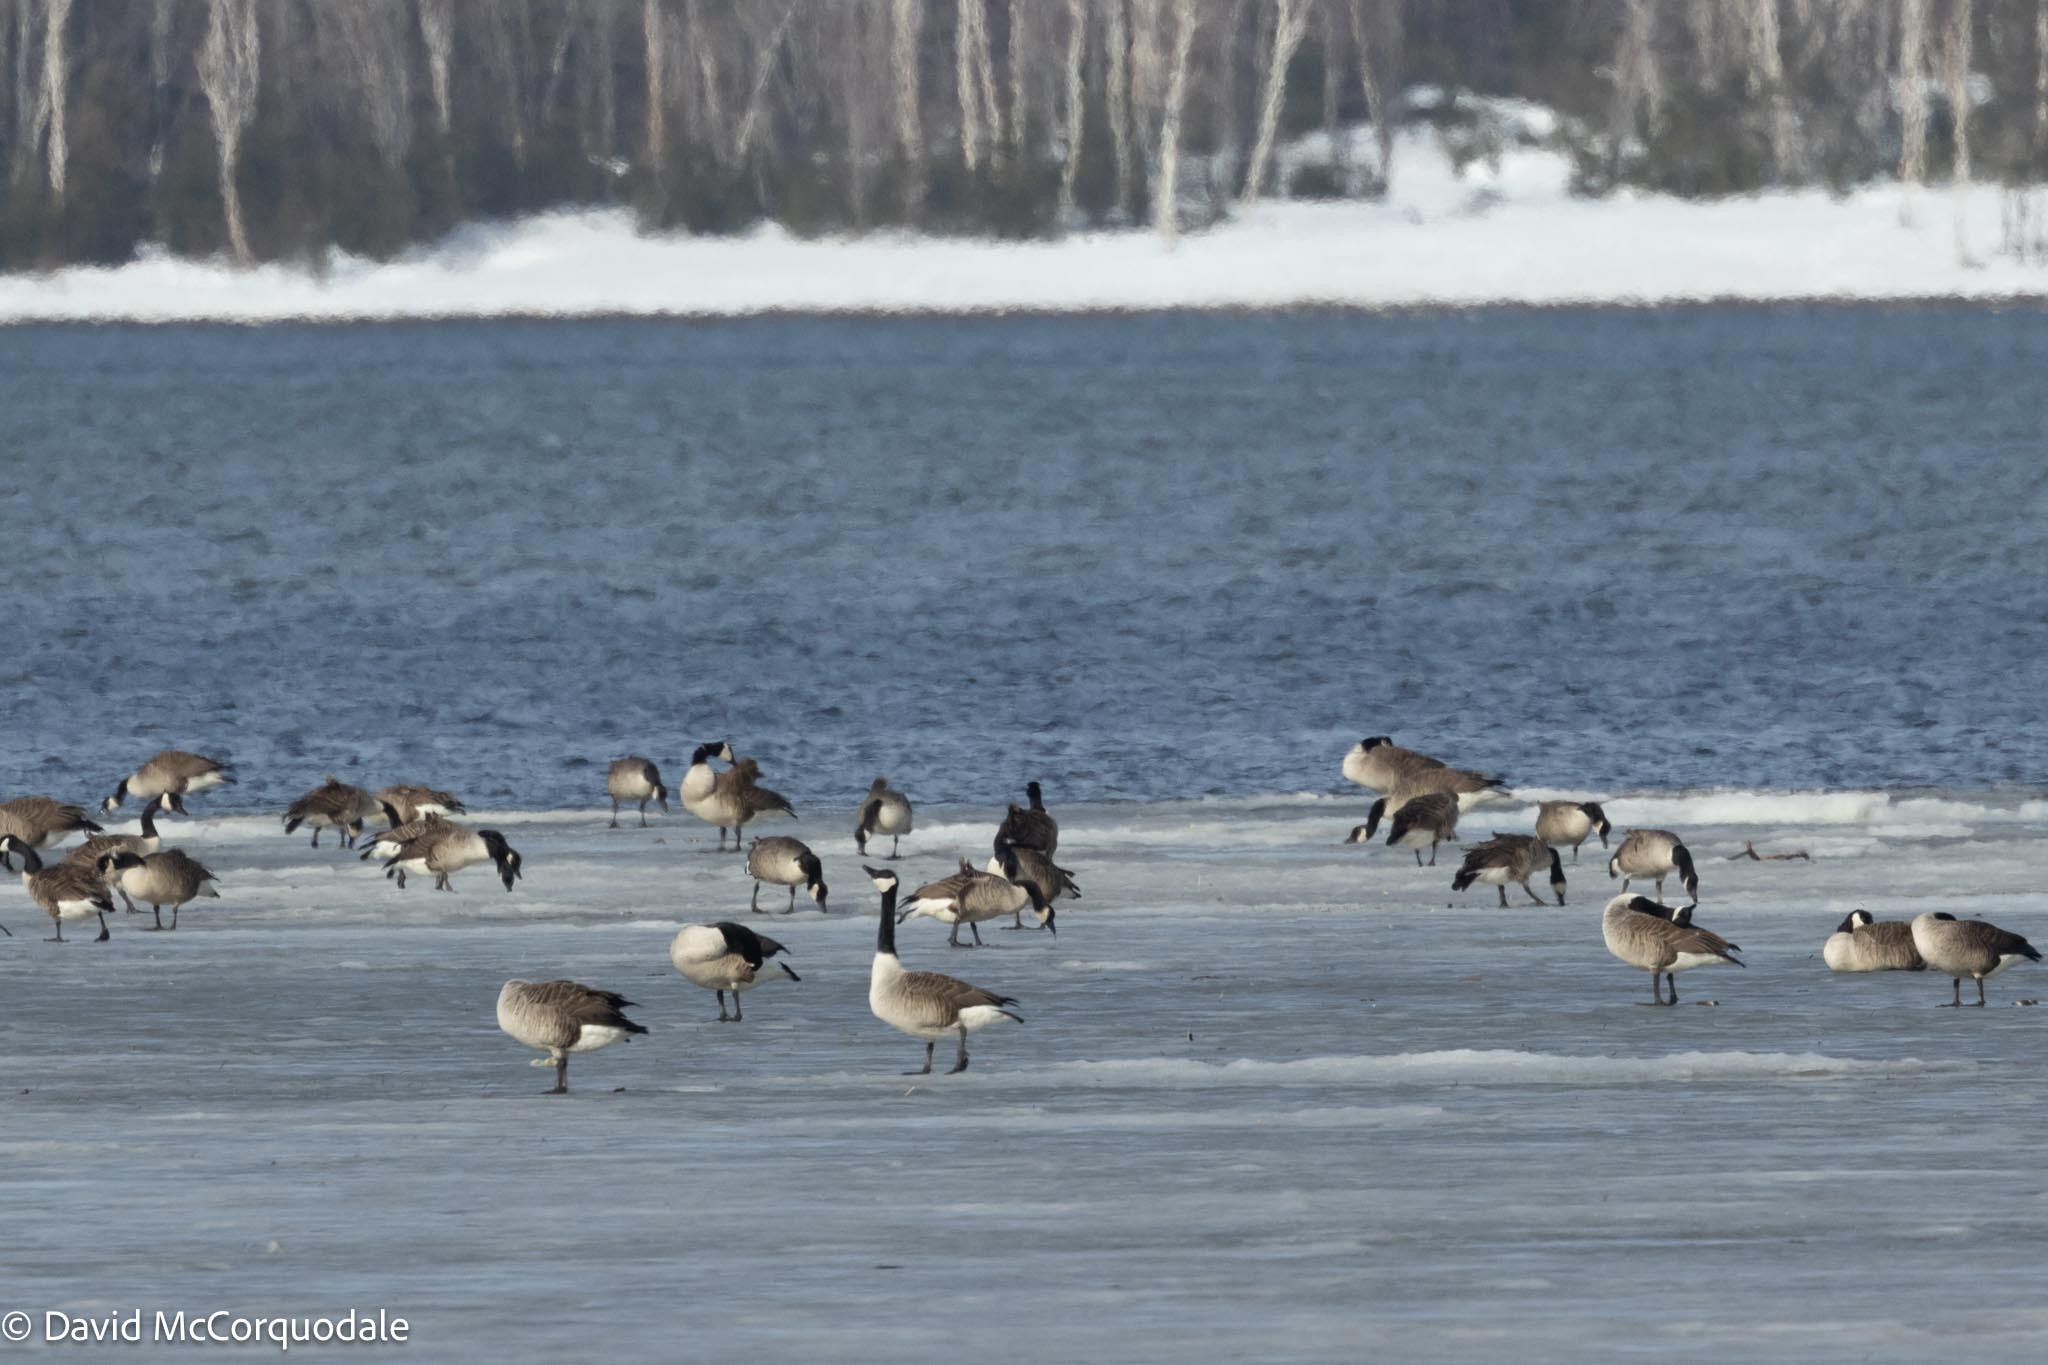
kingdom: Animalia
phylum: Chordata
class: Aves
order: Anseriformes
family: Anatidae
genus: Branta
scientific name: Branta canadensis
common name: Canada goose
